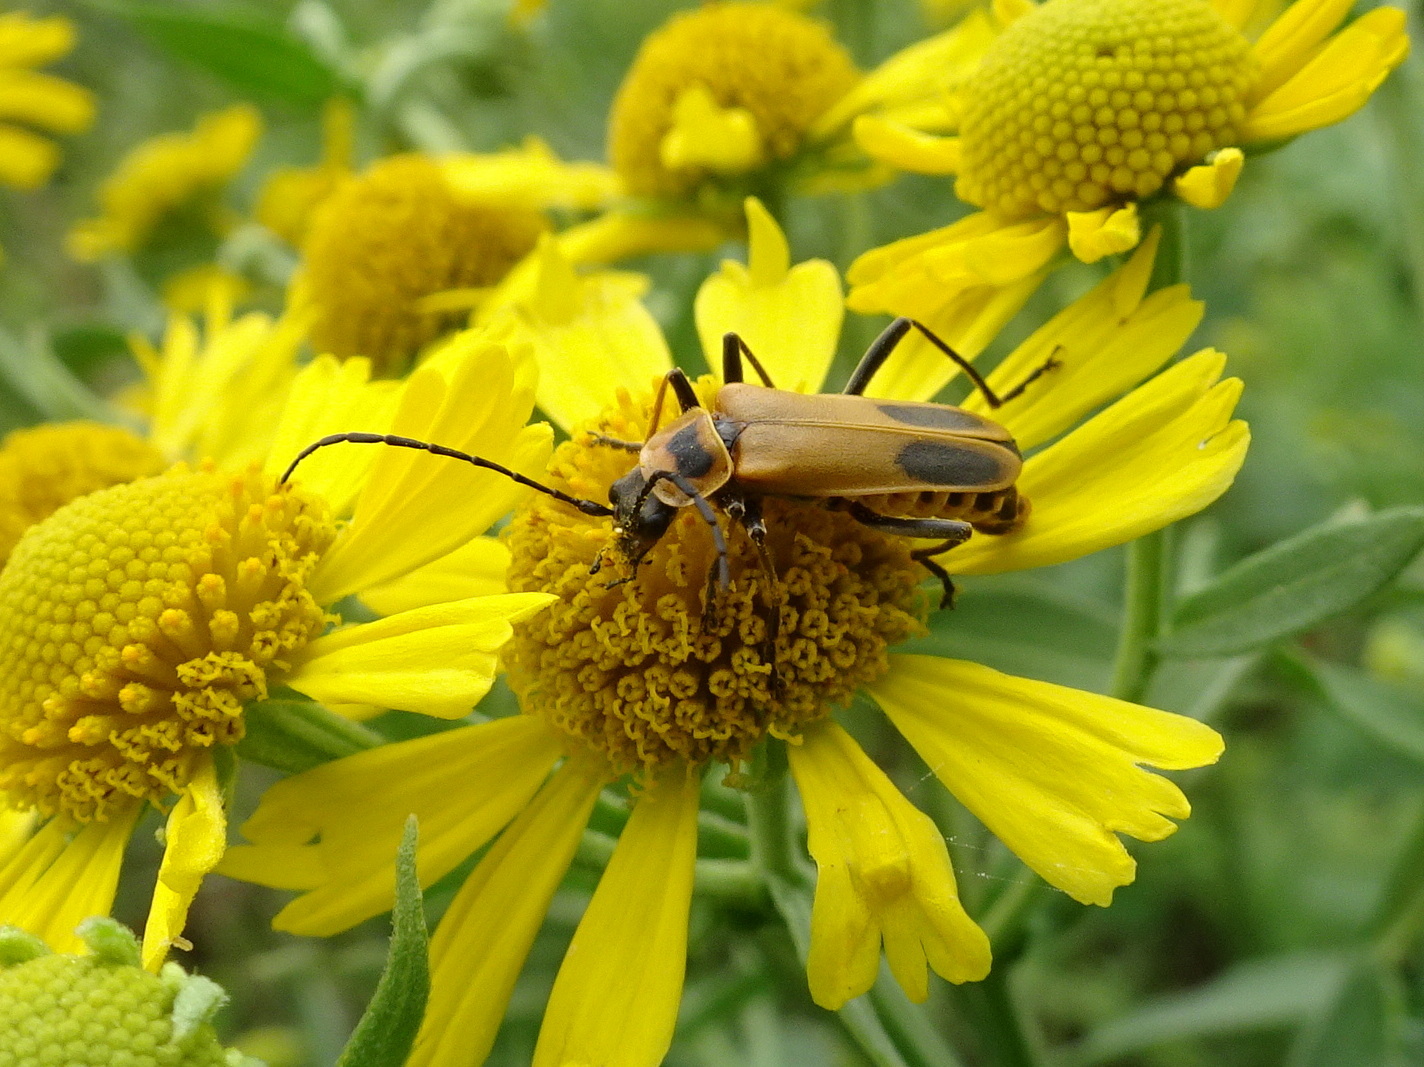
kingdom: Animalia
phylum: Arthropoda
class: Insecta
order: Coleoptera
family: Cantharidae
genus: Chauliognathus
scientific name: Chauliognathus pensylvanicus
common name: Goldenrod soldier beetle
